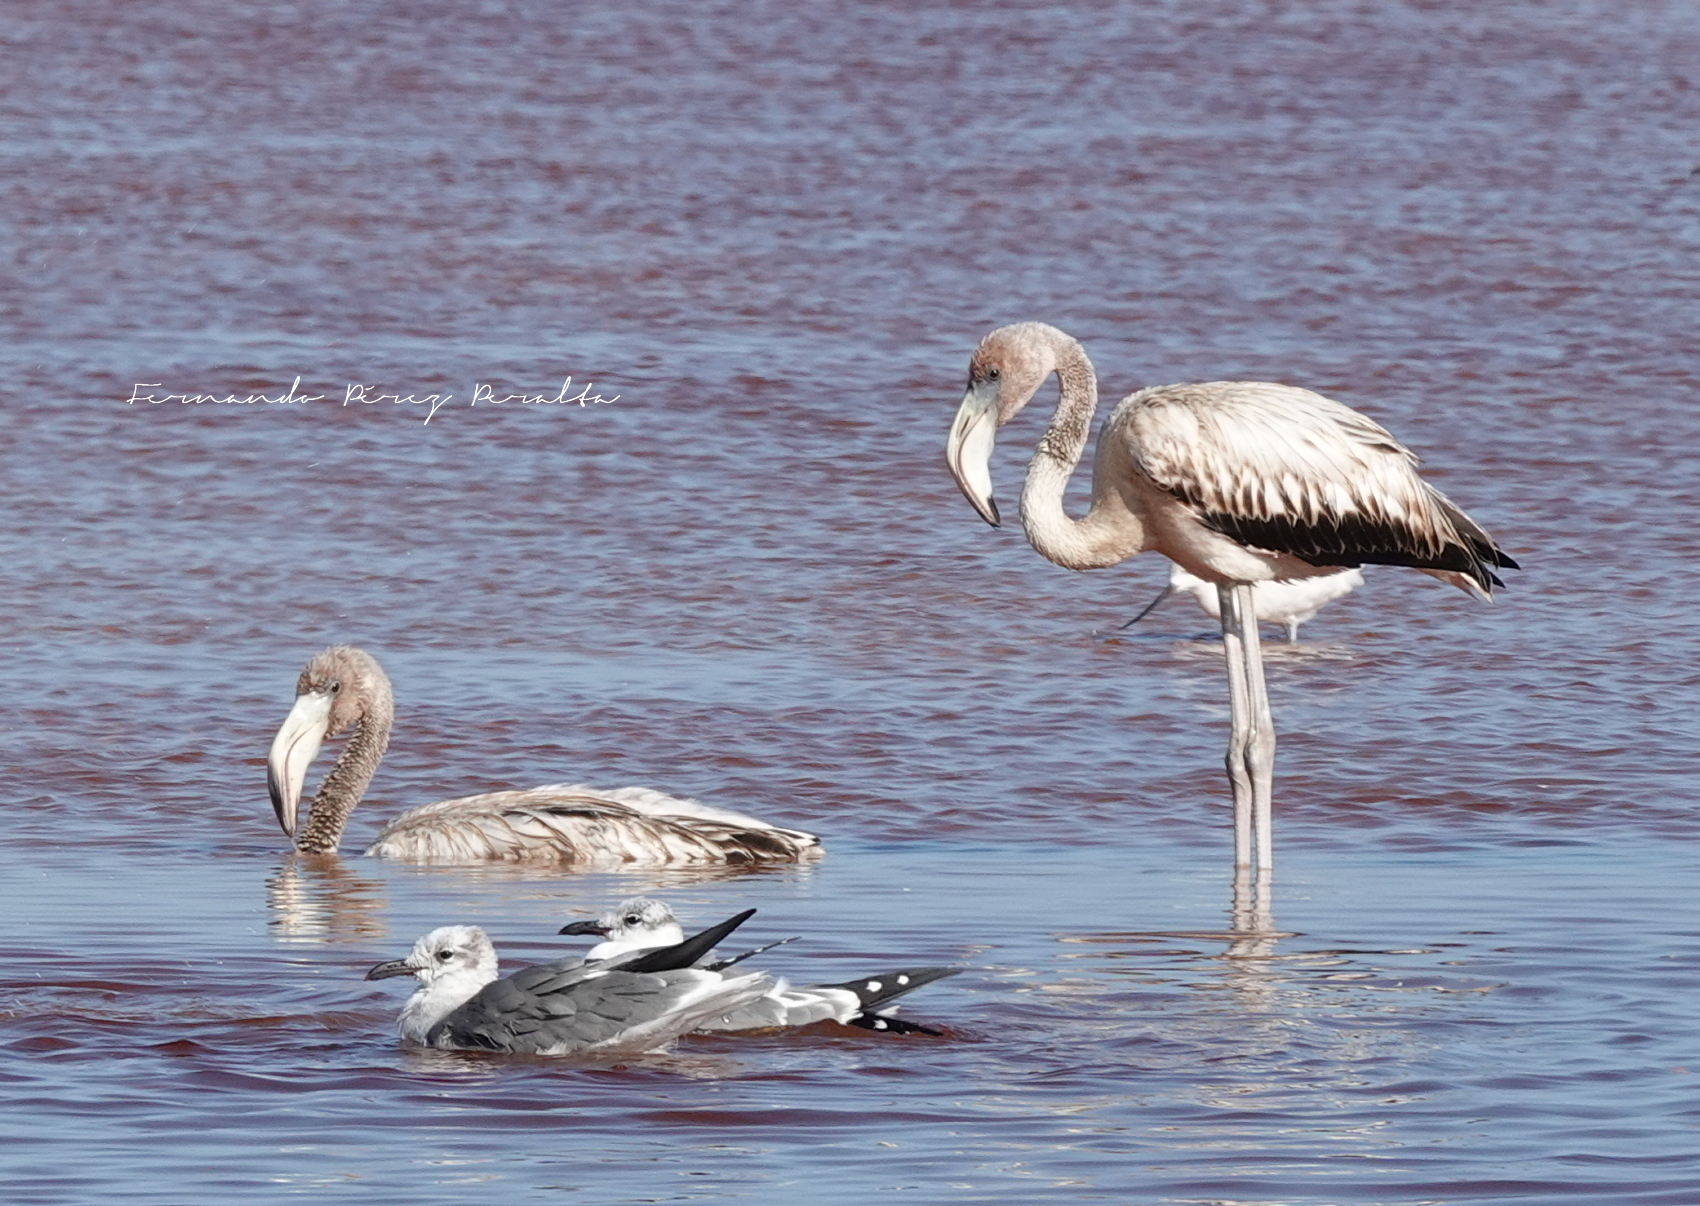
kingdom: Animalia
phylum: Chordata
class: Aves
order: Phoenicopteriformes
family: Phoenicopteridae
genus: Phoenicopterus
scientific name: Phoenicopterus ruber
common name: American flamingo
